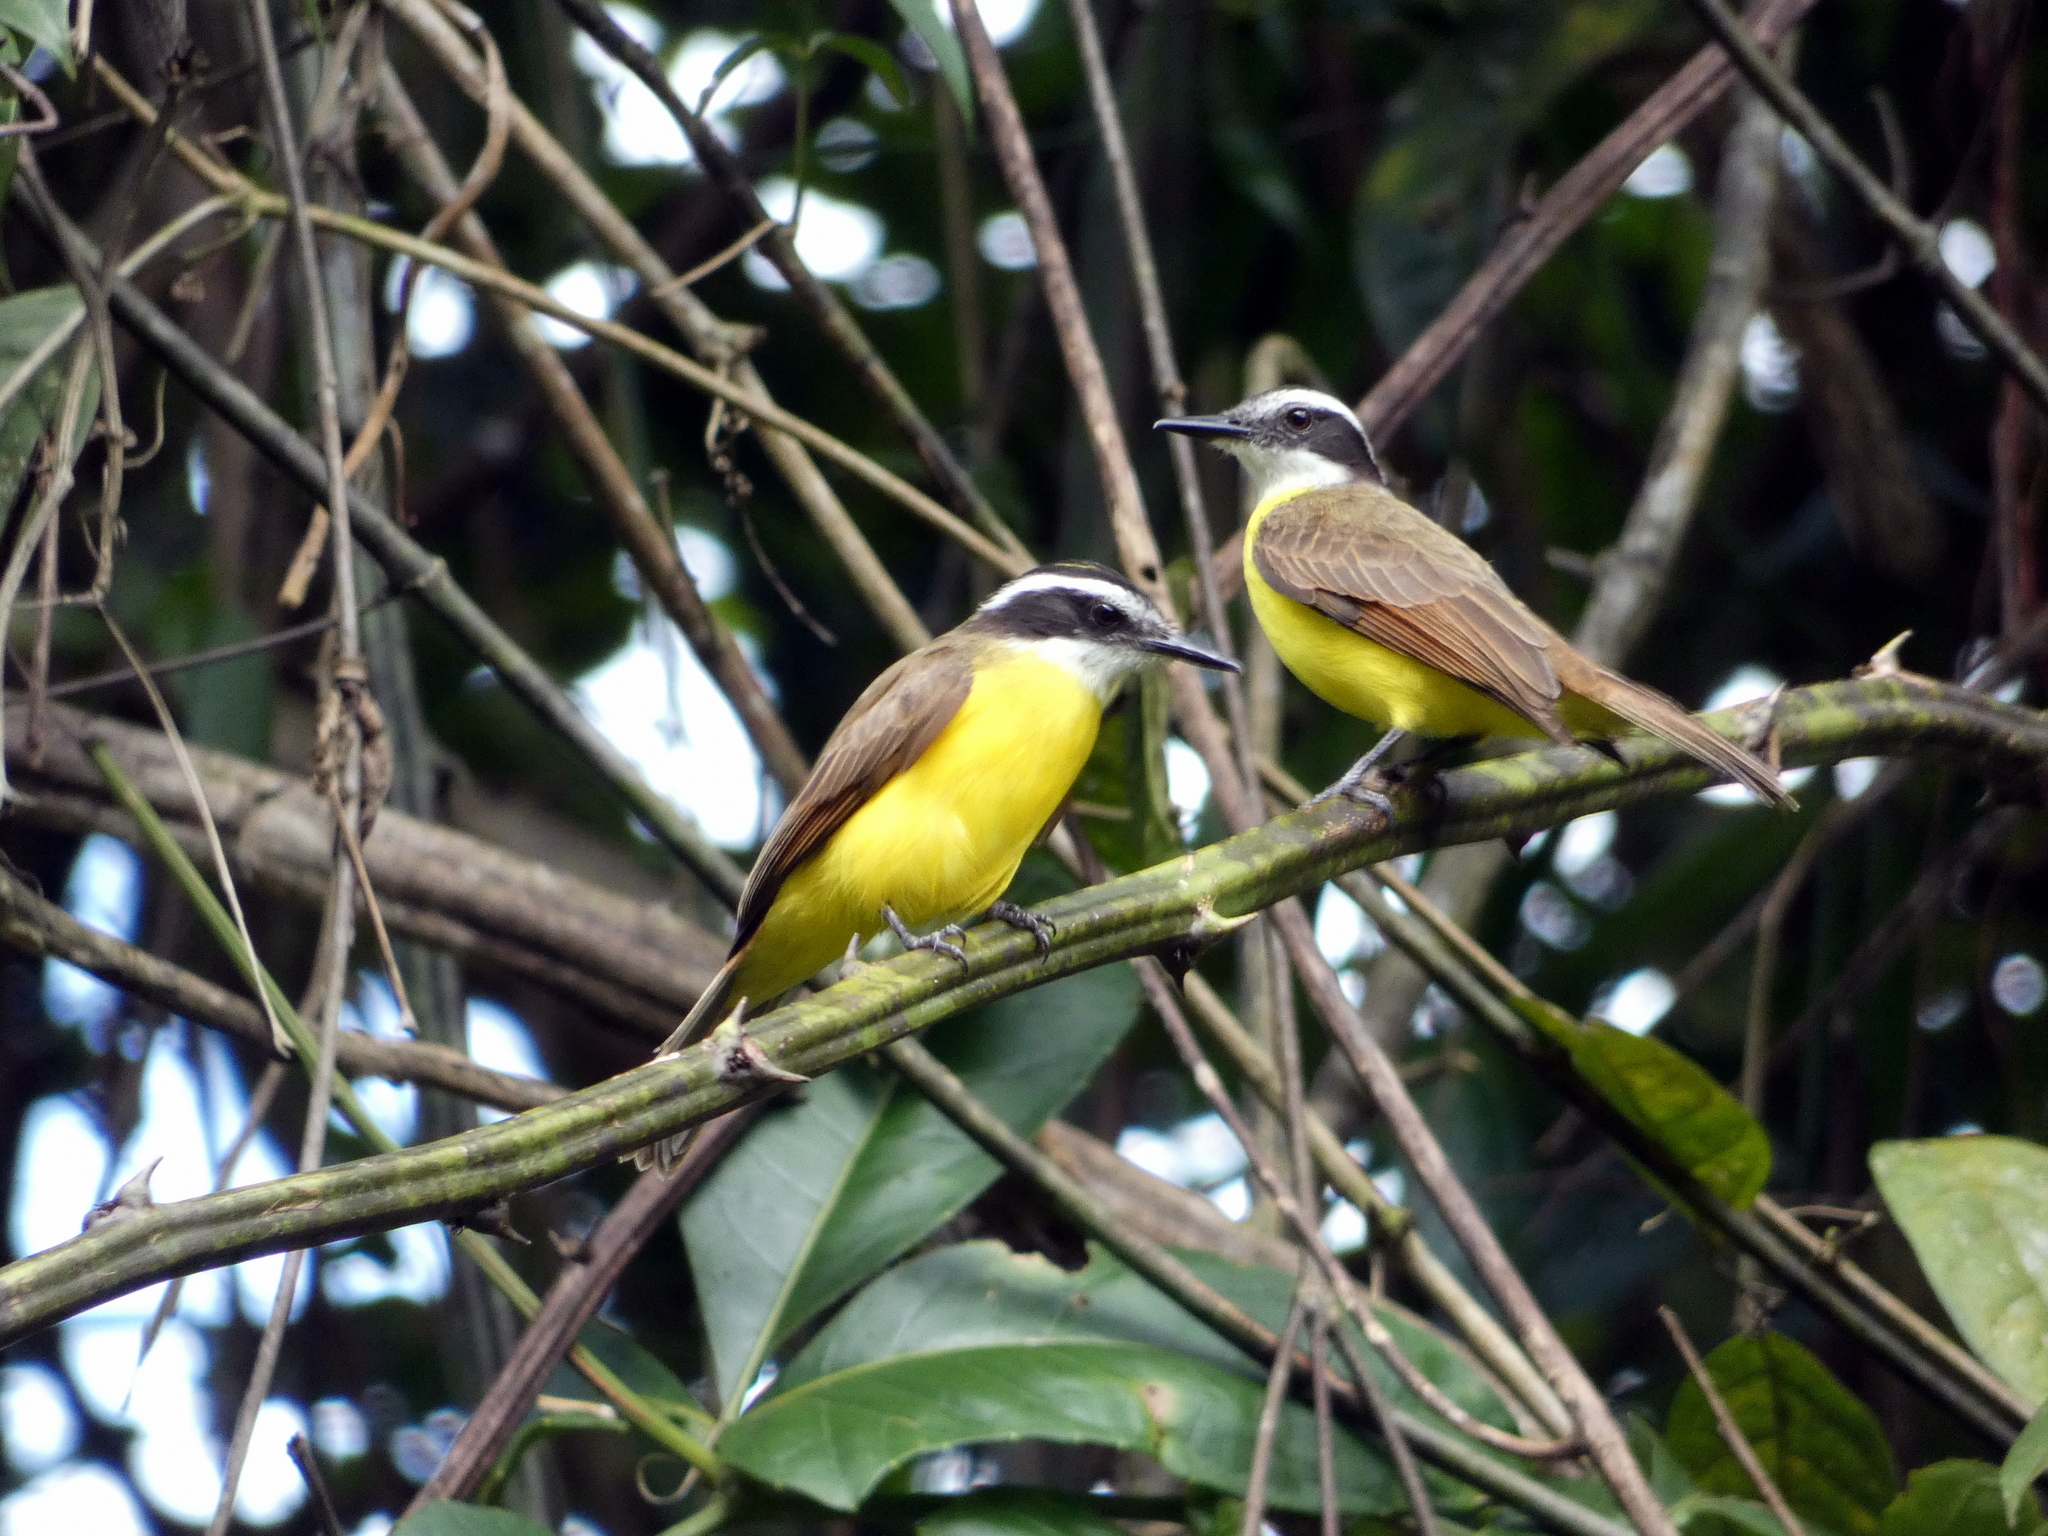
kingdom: Animalia
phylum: Chordata
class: Aves
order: Passeriformes
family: Tyrannidae
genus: Pitangus
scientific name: Pitangus lictor
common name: Lesser kiskadee
